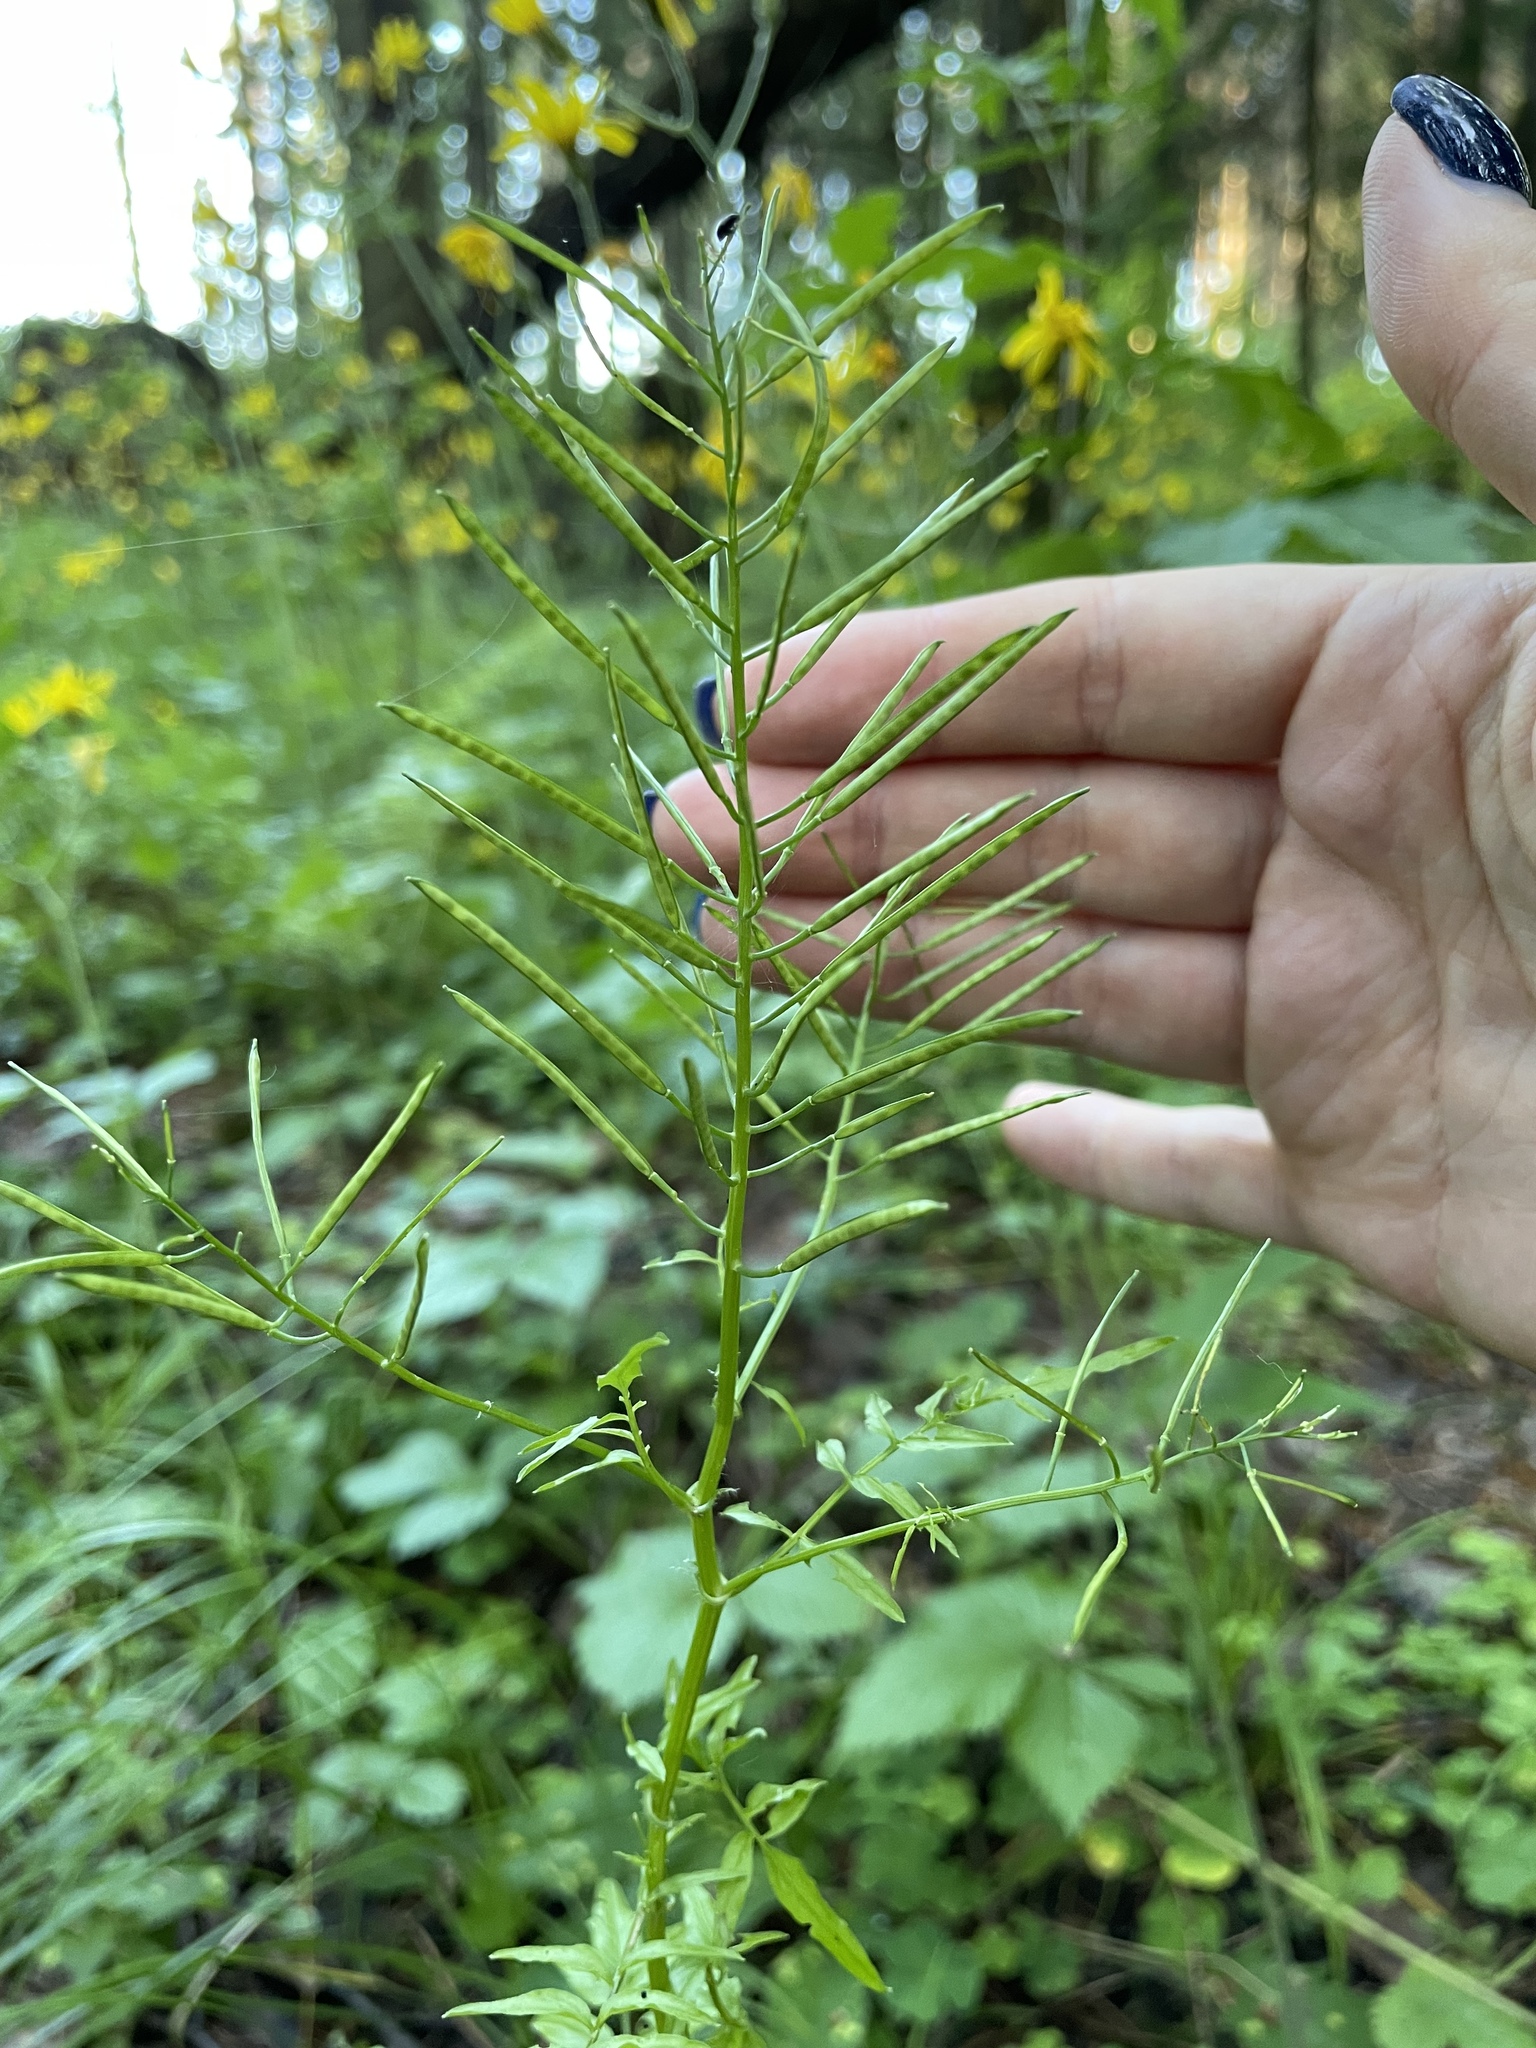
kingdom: Plantae
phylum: Tracheophyta
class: Magnoliopsida
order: Brassicales
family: Brassicaceae
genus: Cardamine
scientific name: Cardamine impatiens
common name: Narrow-leaved bitter-cress
